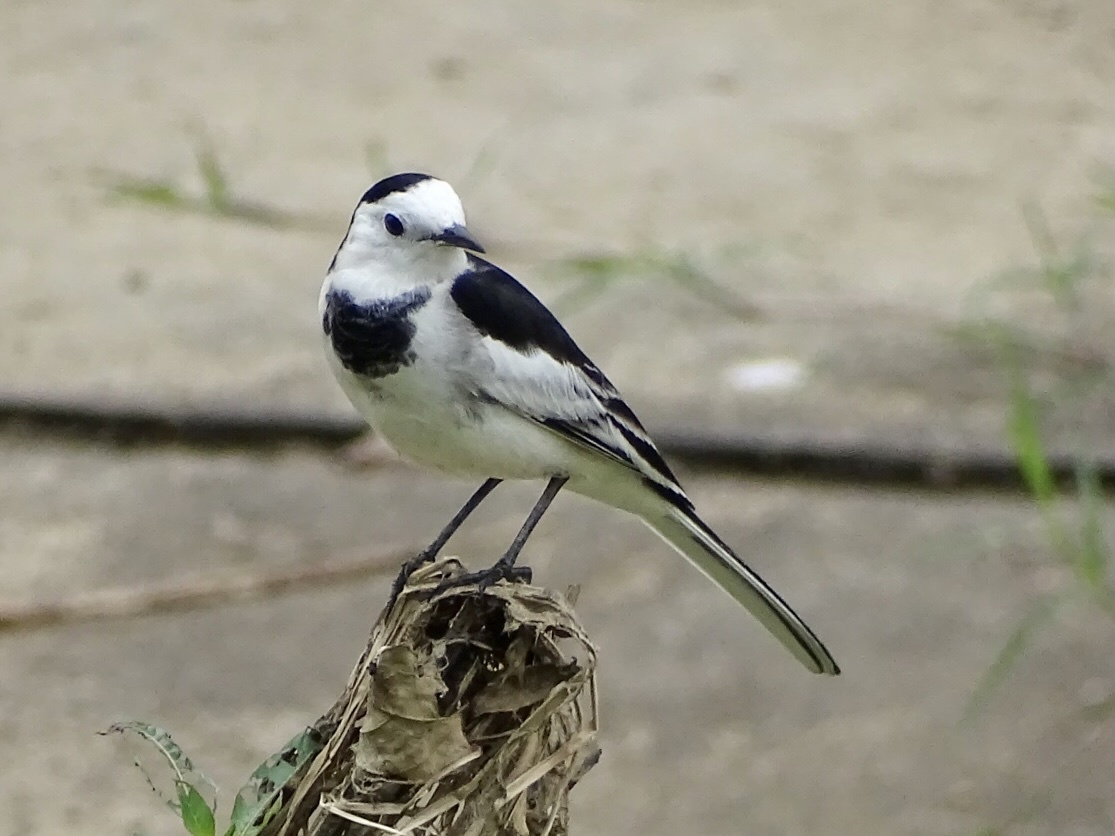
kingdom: Animalia
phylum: Chordata
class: Aves
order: Passeriformes
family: Motacillidae
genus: Motacilla
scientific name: Motacilla alba
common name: White wagtail
